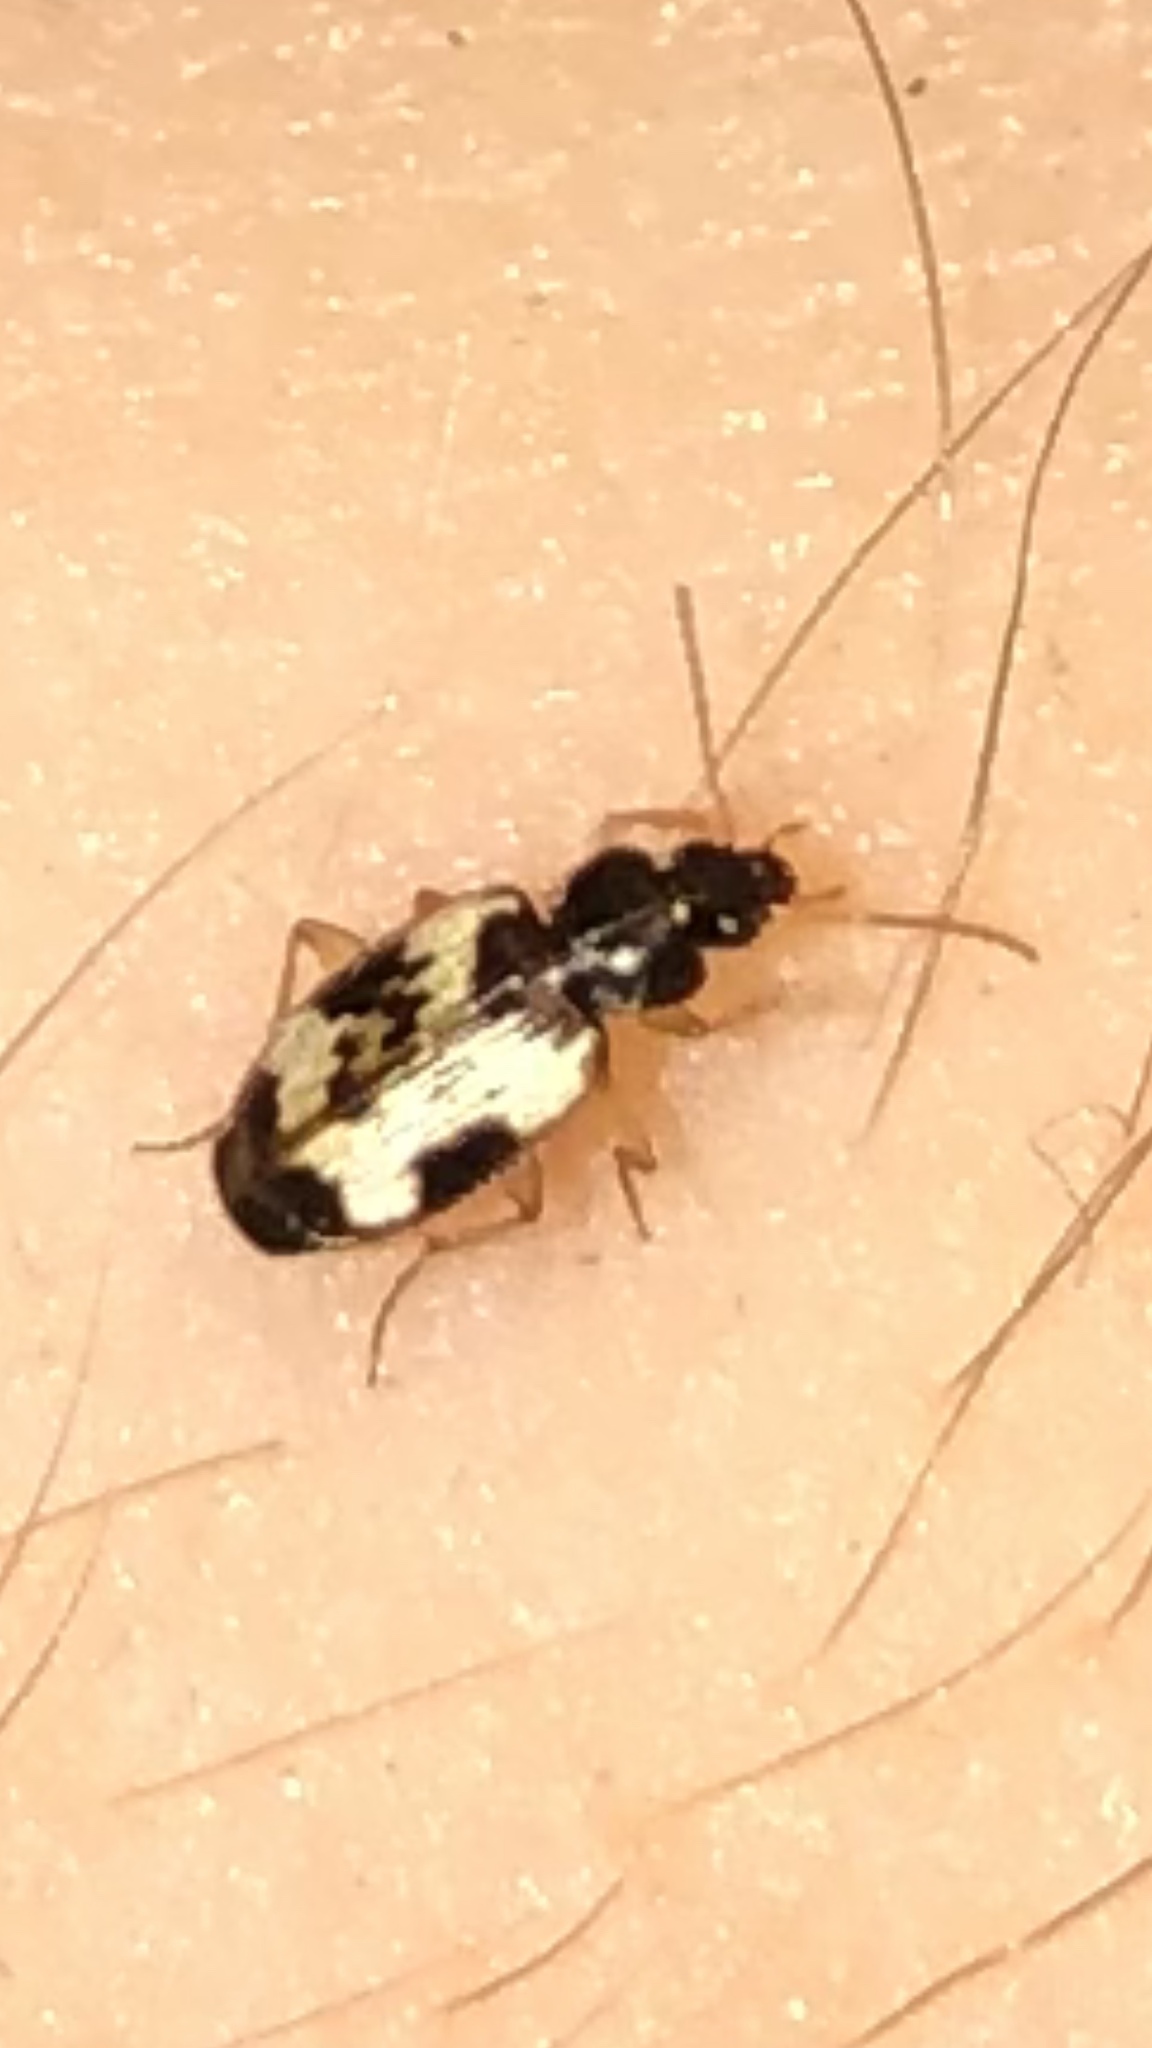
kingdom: Animalia
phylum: Arthropoda
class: Insecta
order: Coleoptera
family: Carabidae
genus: Tetragonoderus
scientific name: Tetragonoderus fasciatus
